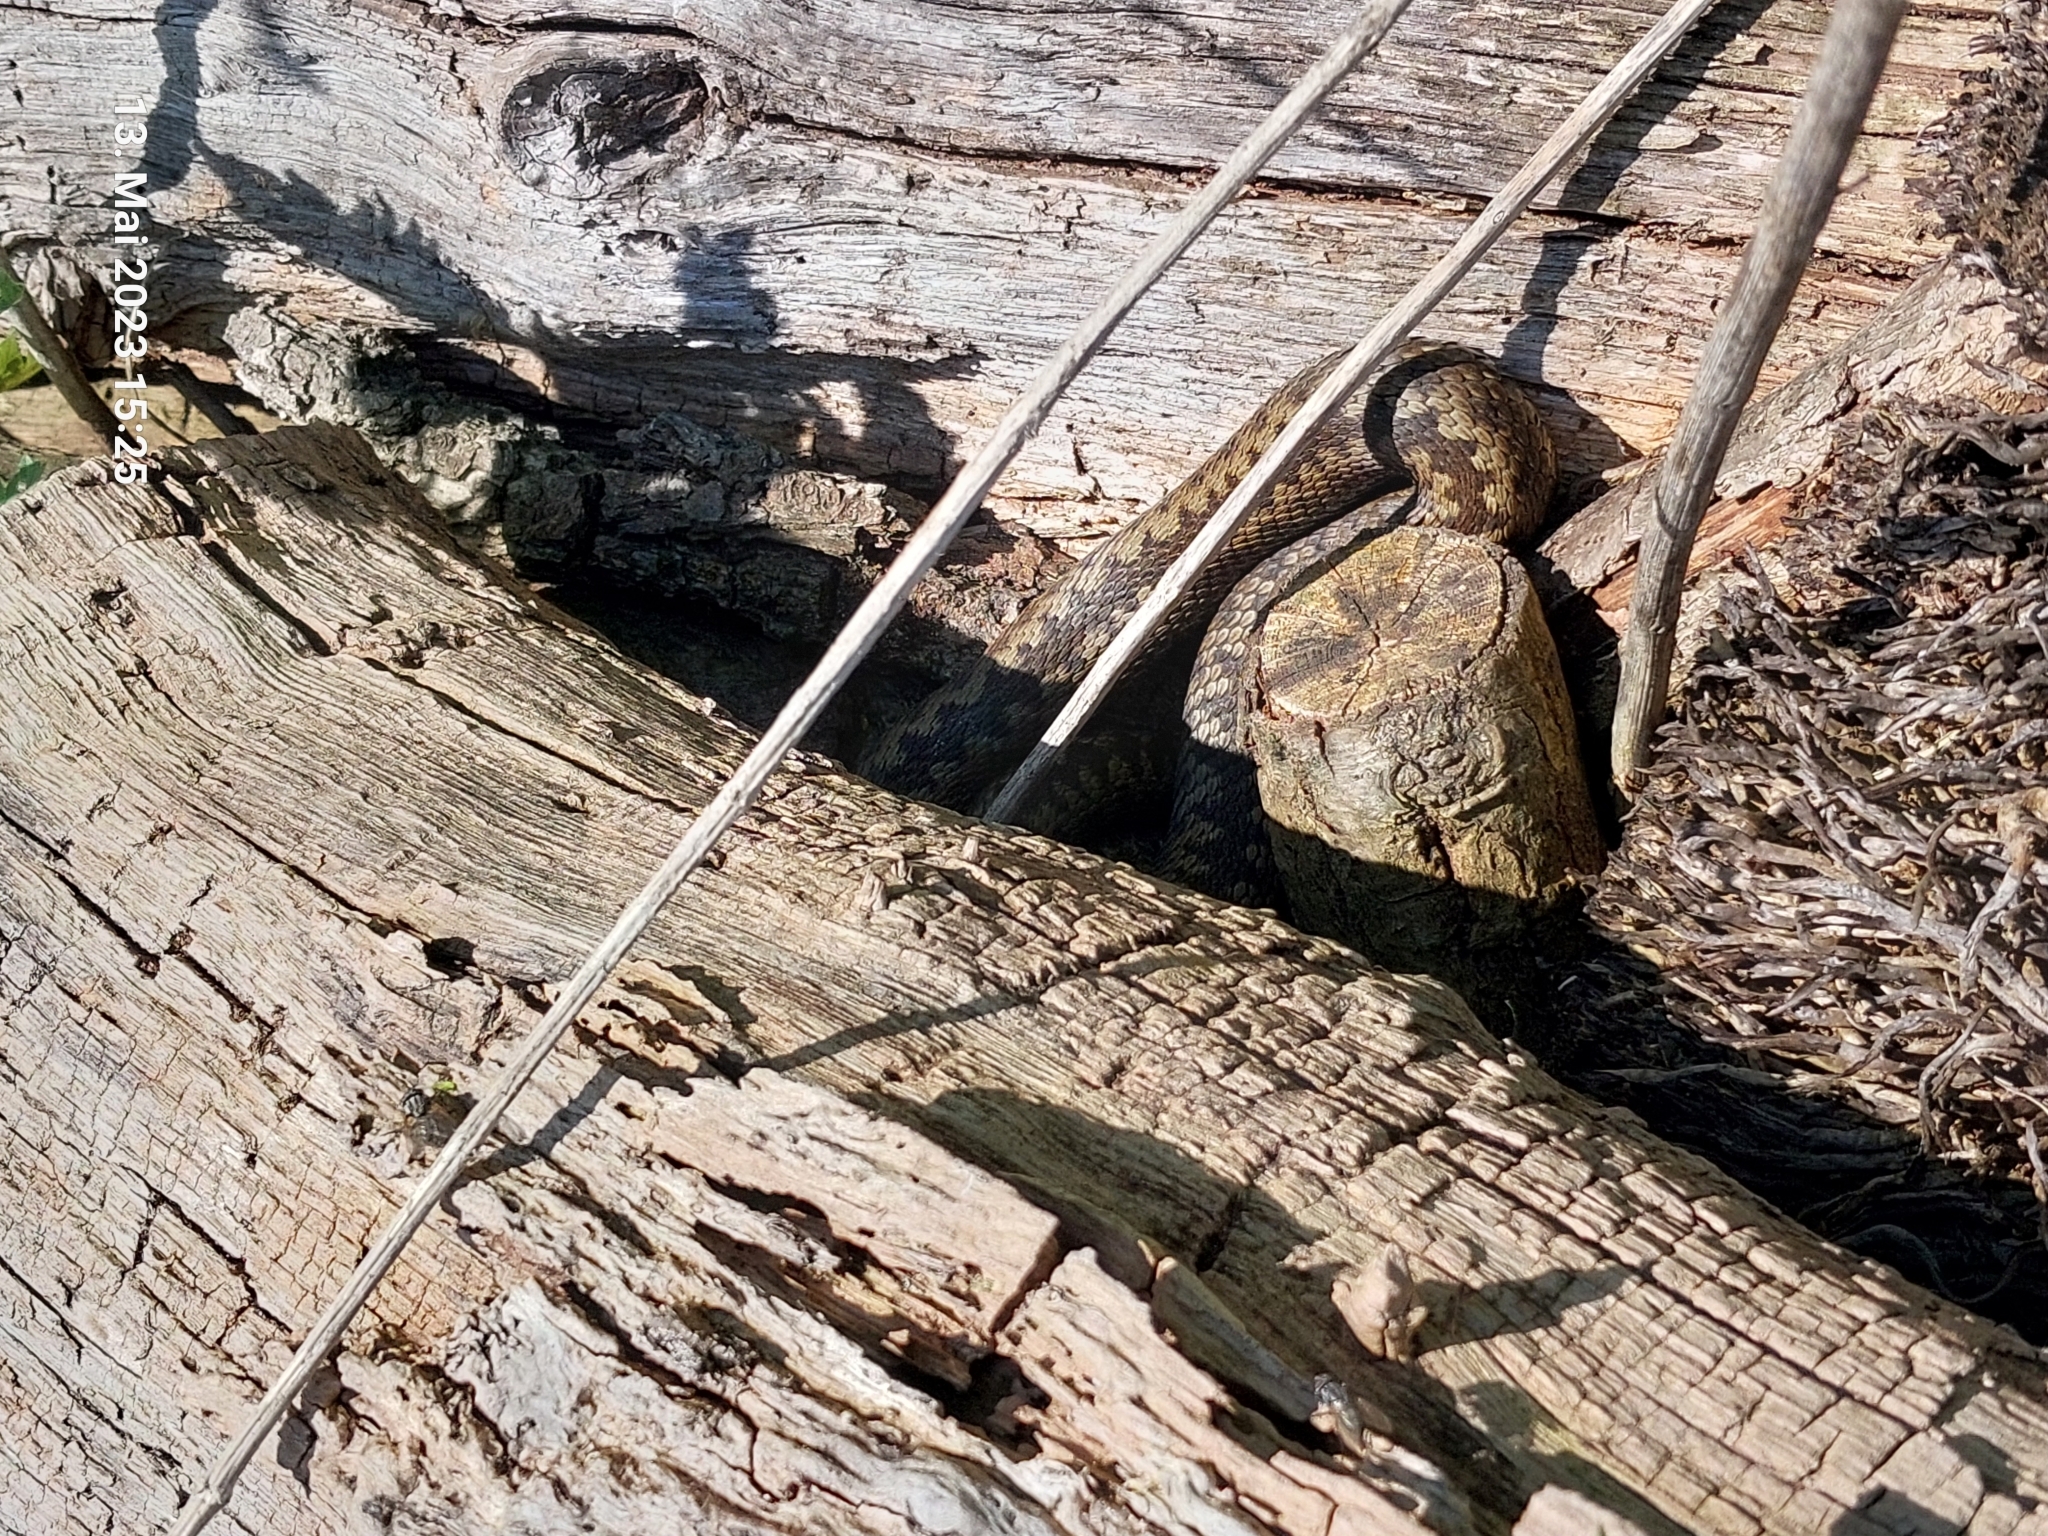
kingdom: Animalia
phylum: Chordata
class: Squamata
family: Viperidae
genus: Vipera
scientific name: Vipera berus
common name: Adder
